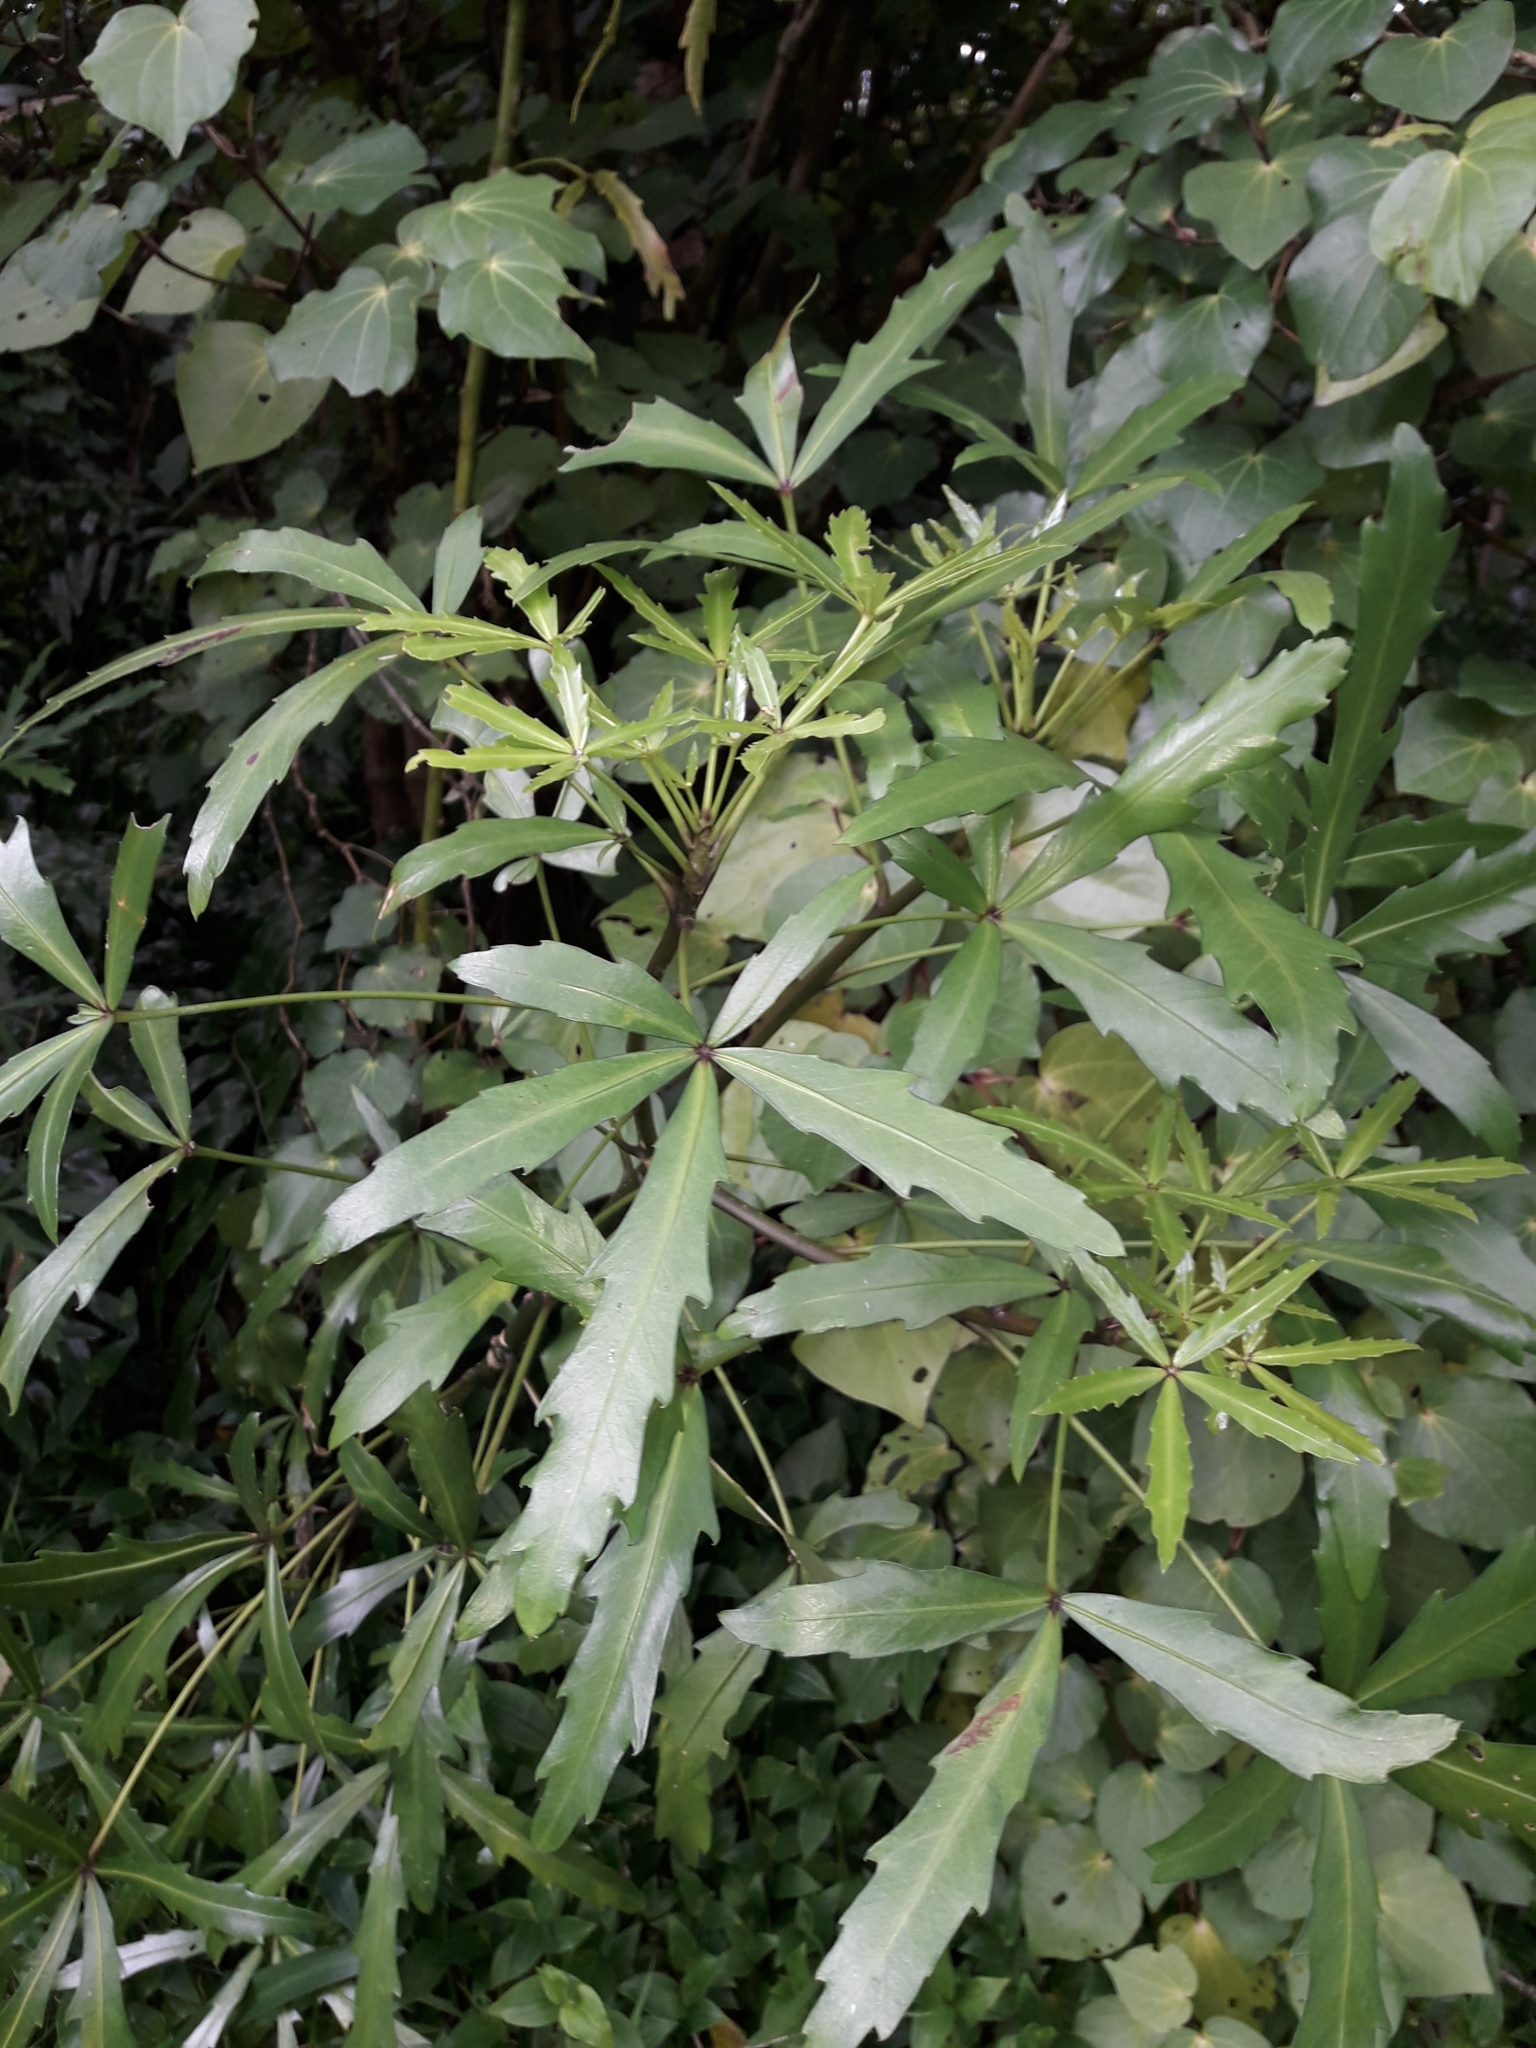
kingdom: Plantae
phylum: Tracheophyta
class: Magnoliopsida
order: Apiales
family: Araliaceae
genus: Pseudopanax
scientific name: Pseudopanax
